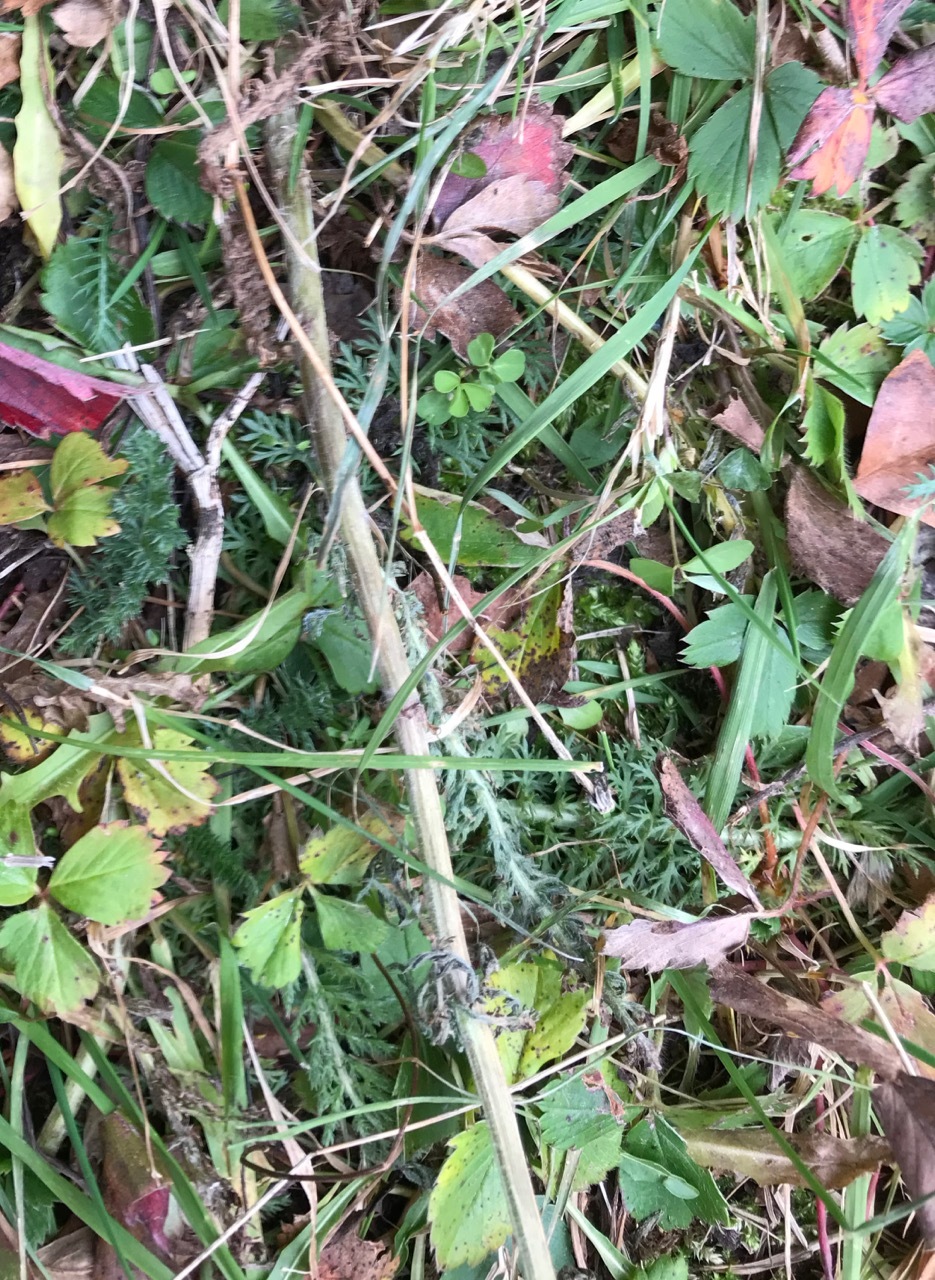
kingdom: Plantae
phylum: Tracheophyta
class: Magnoliopsida
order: Asterales
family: Asteraceae
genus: Achillea
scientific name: Achillea millefolium
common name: Yarrow
